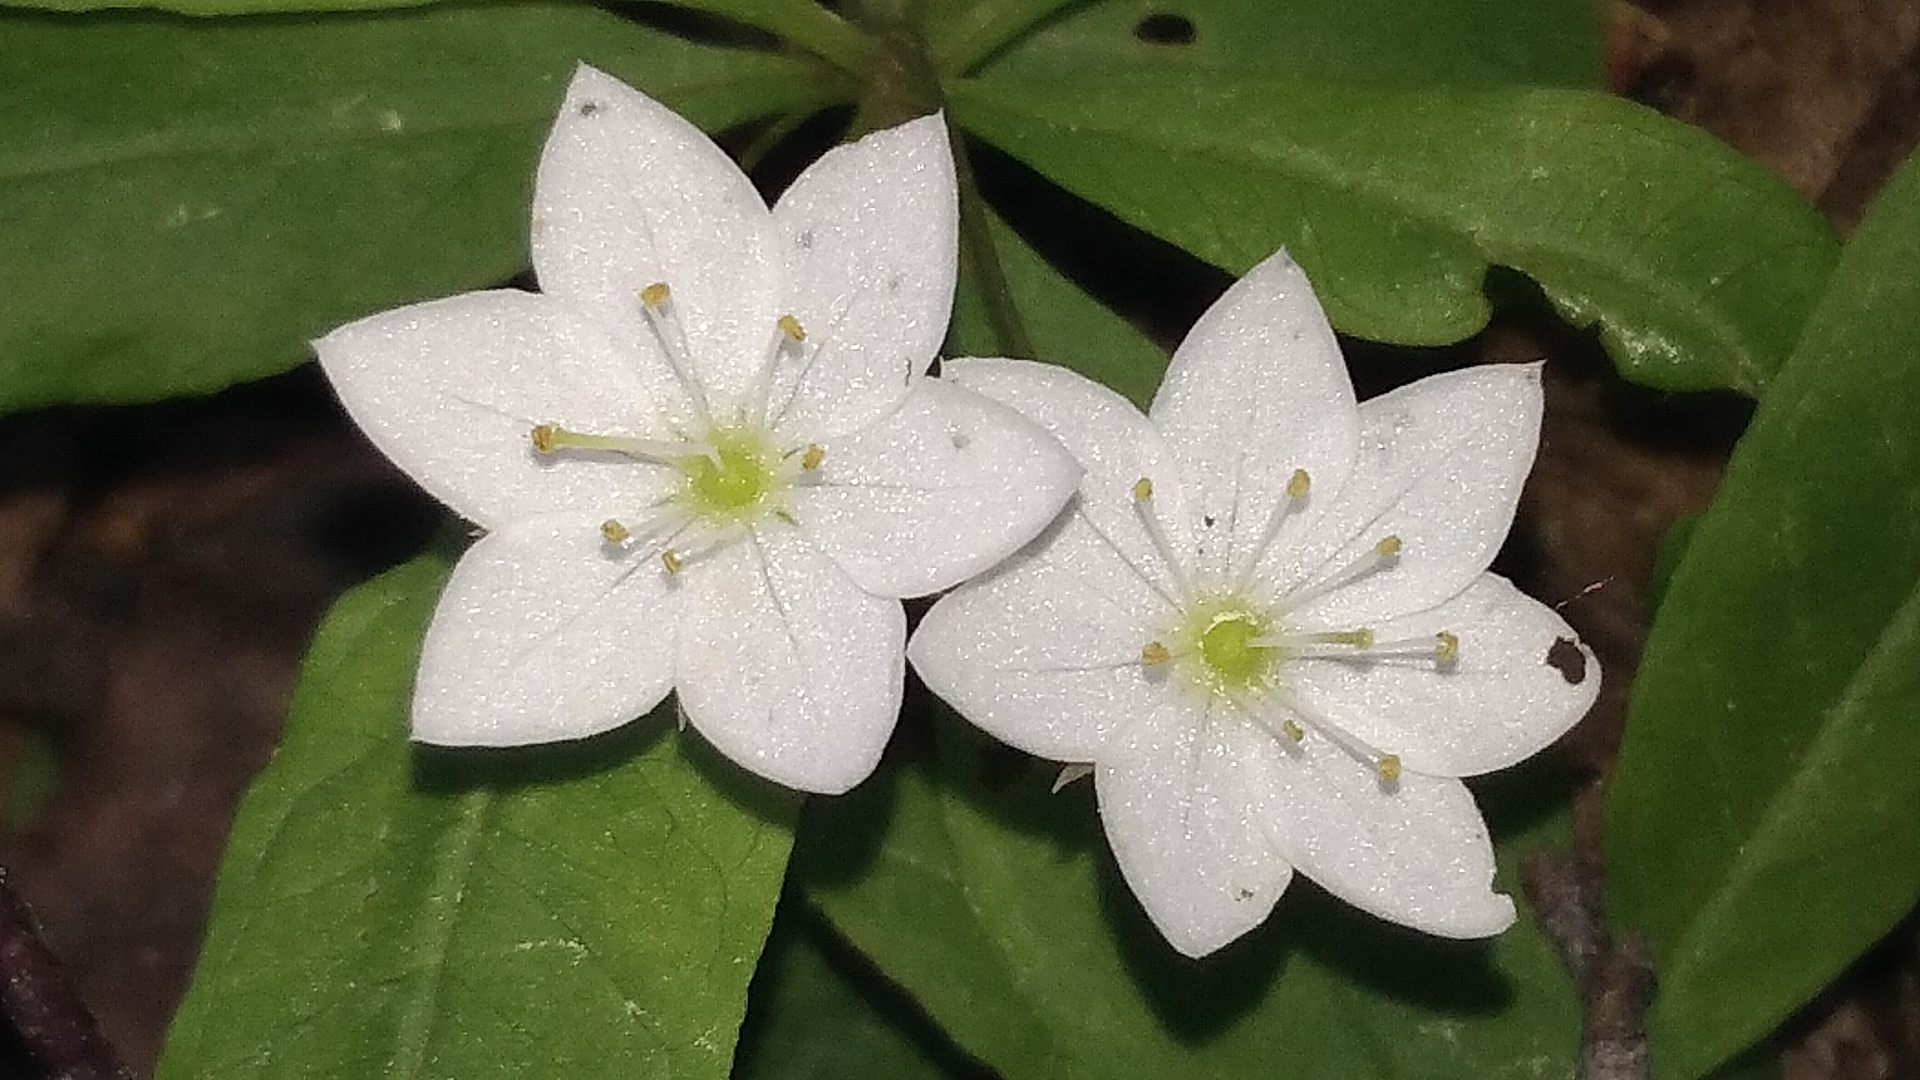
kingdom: Plantae
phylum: Tracheophyta
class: Magnoliopsida
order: Ericales
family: Primulaceae
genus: Lysimachia
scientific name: Lysimachia europaea
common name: Arctic starflower
